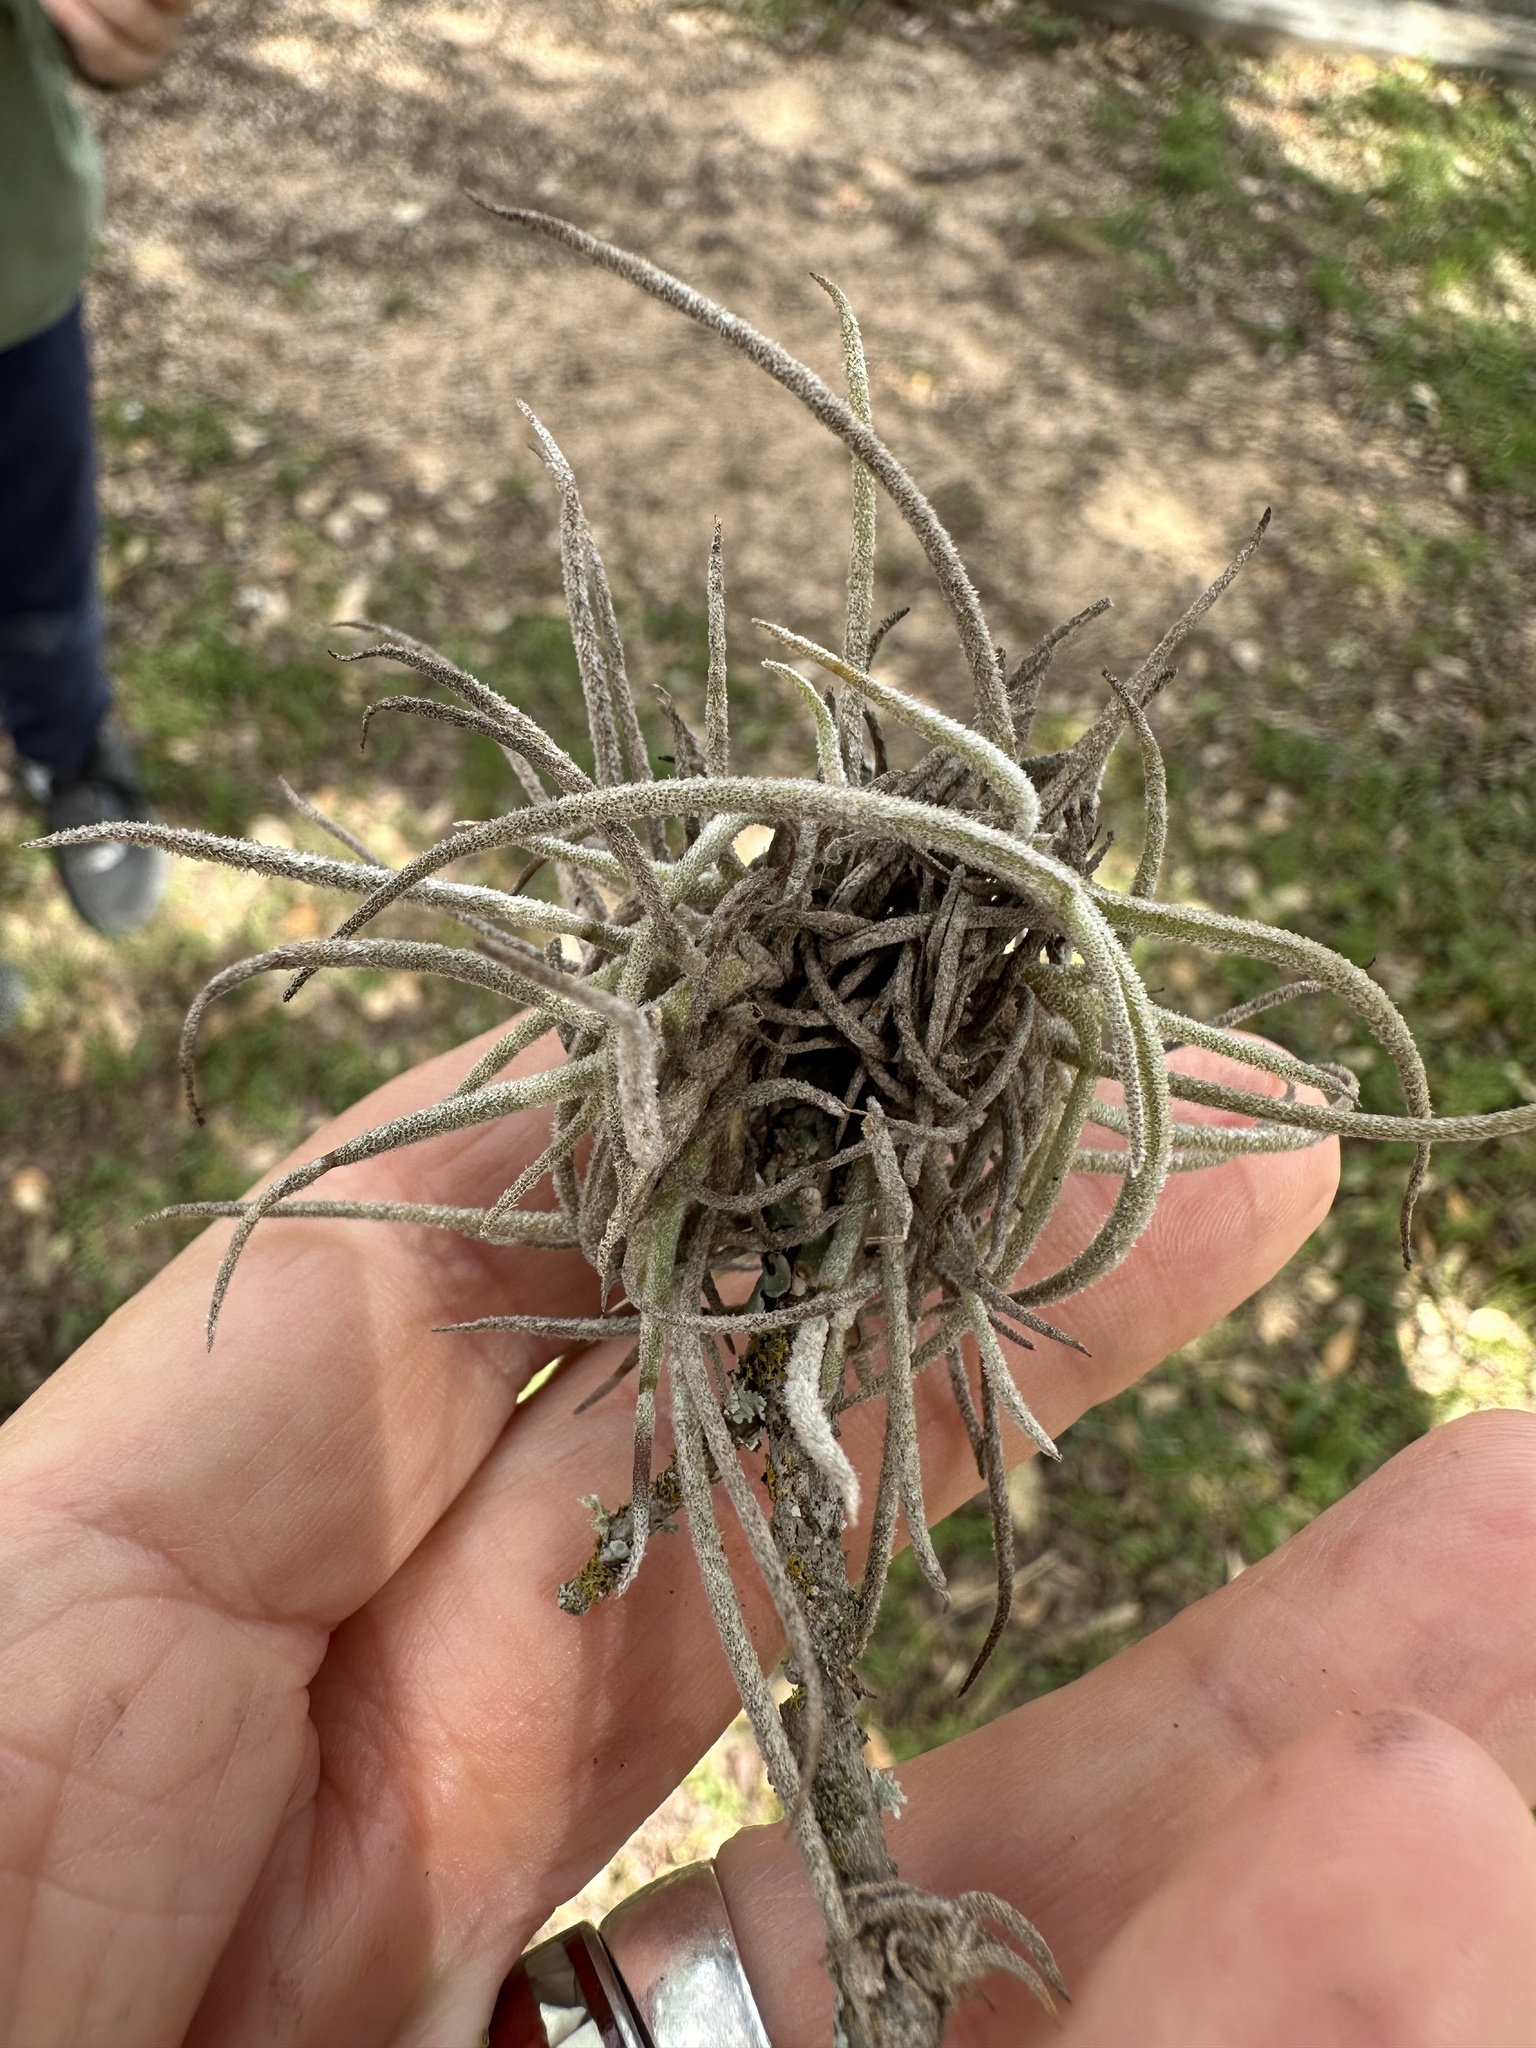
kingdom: Plantae
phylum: Tracheophyta
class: Liliopsida
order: Poales
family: Bromeliaceae
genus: Tillandsia
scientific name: Tillandsia recurvata
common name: Small ballmoss
